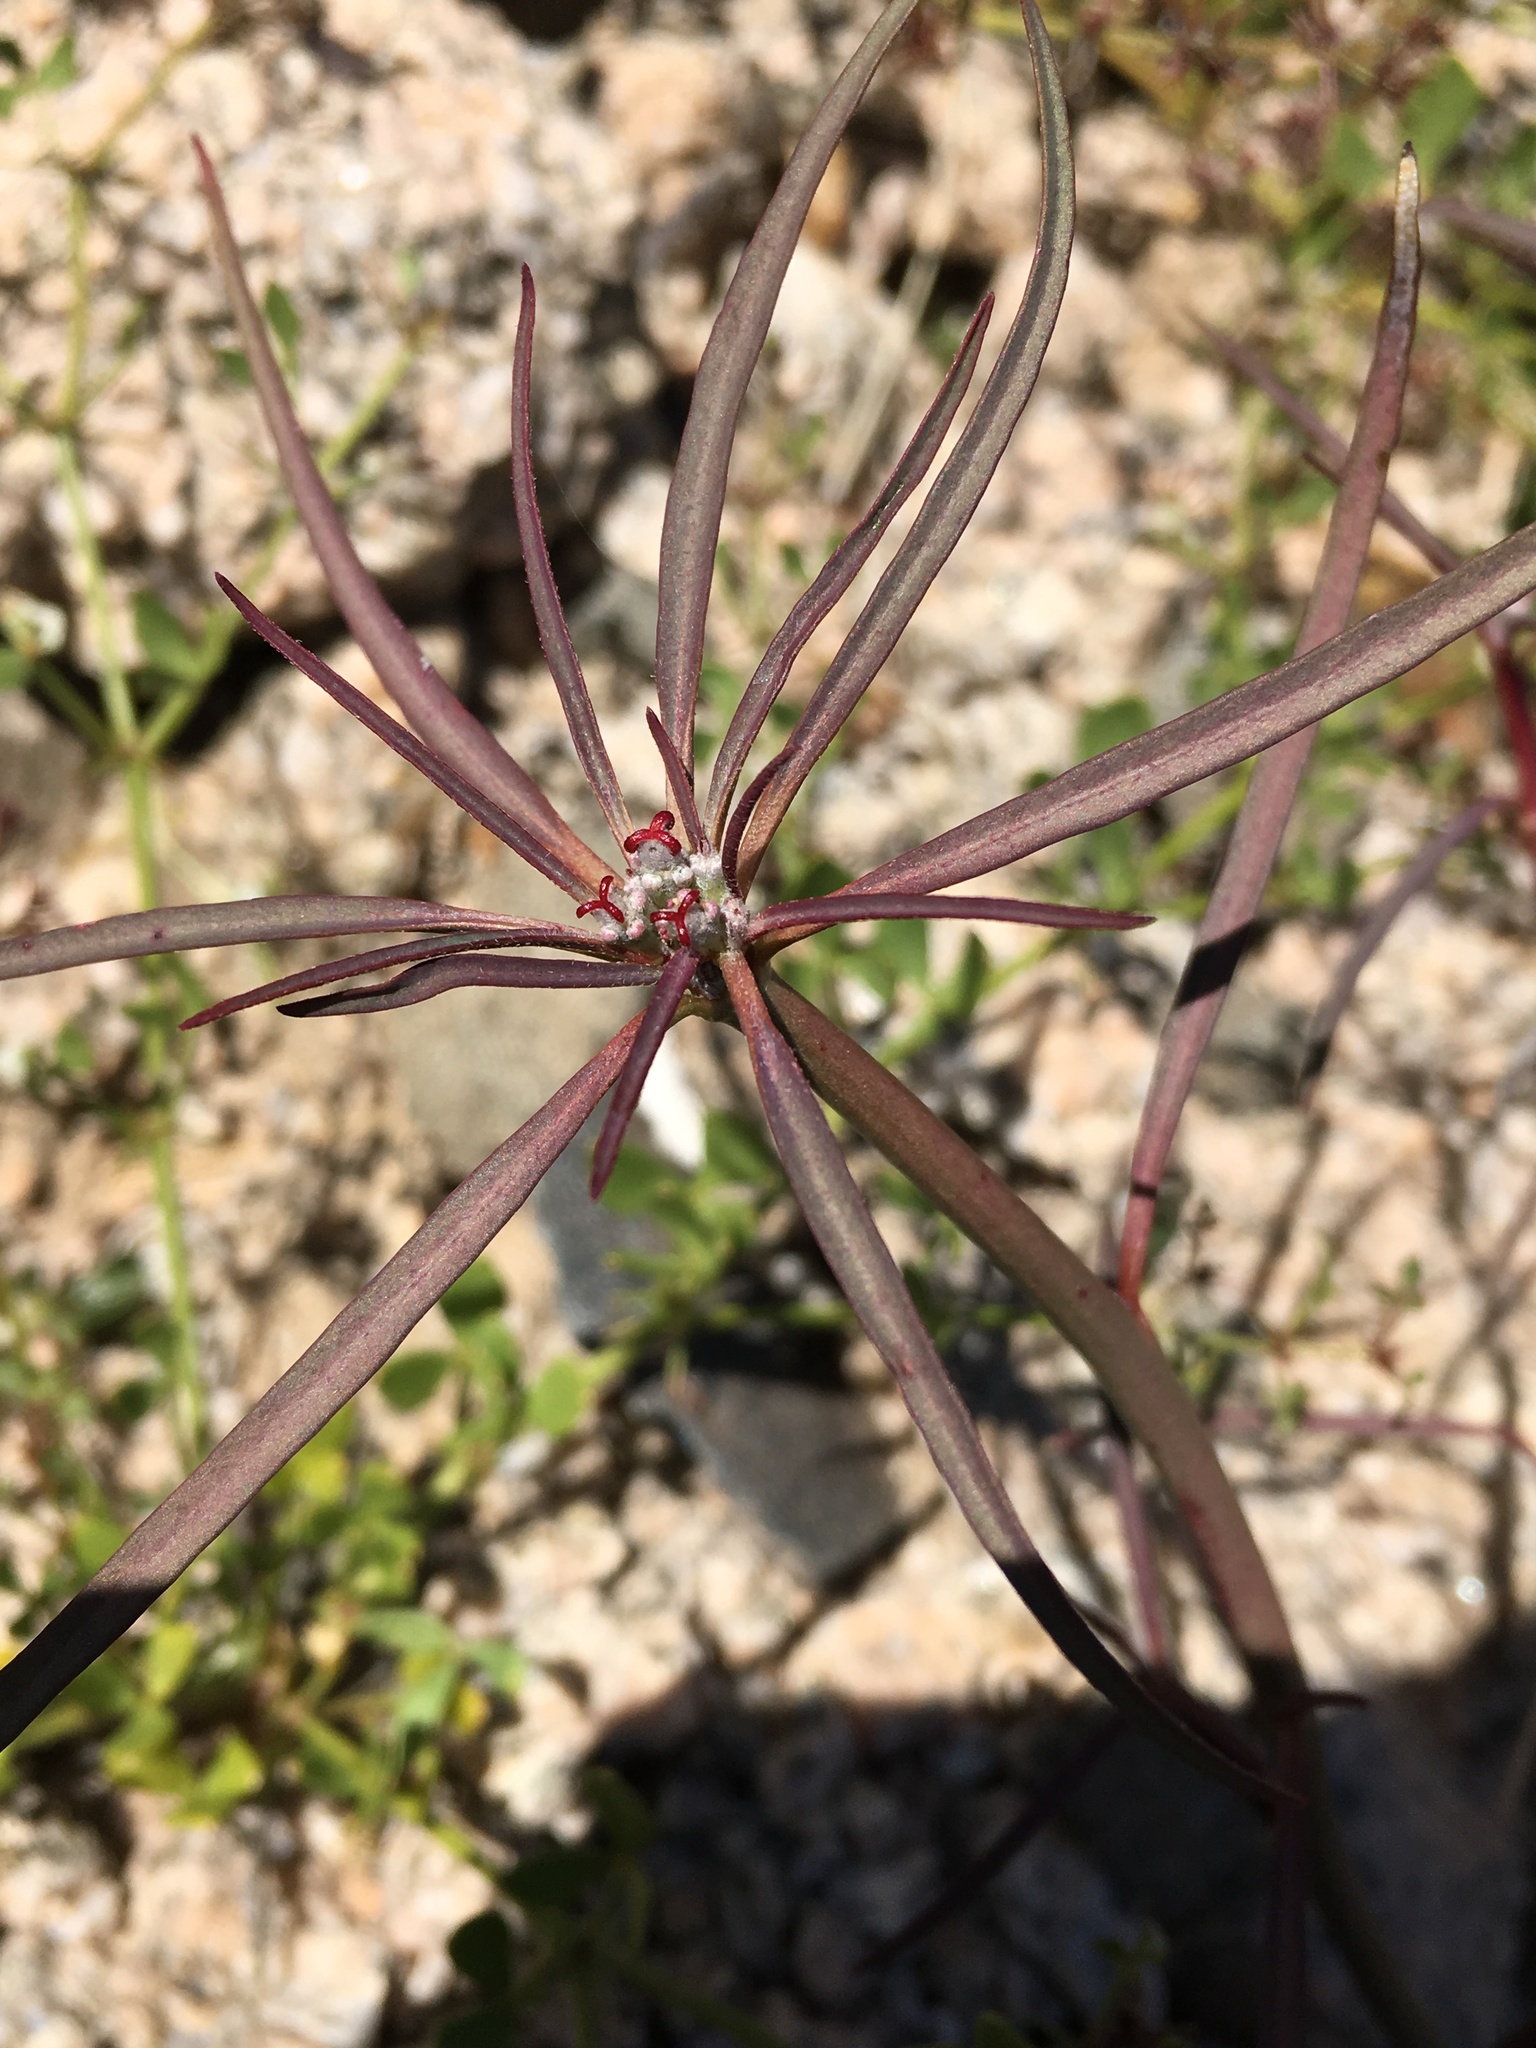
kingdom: Plantae
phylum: Tracheophyta
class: Magnoliopsida
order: Malpighiales
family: Euphorbiaceae
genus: Euphorbia
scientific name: Euphorbia eriantha
